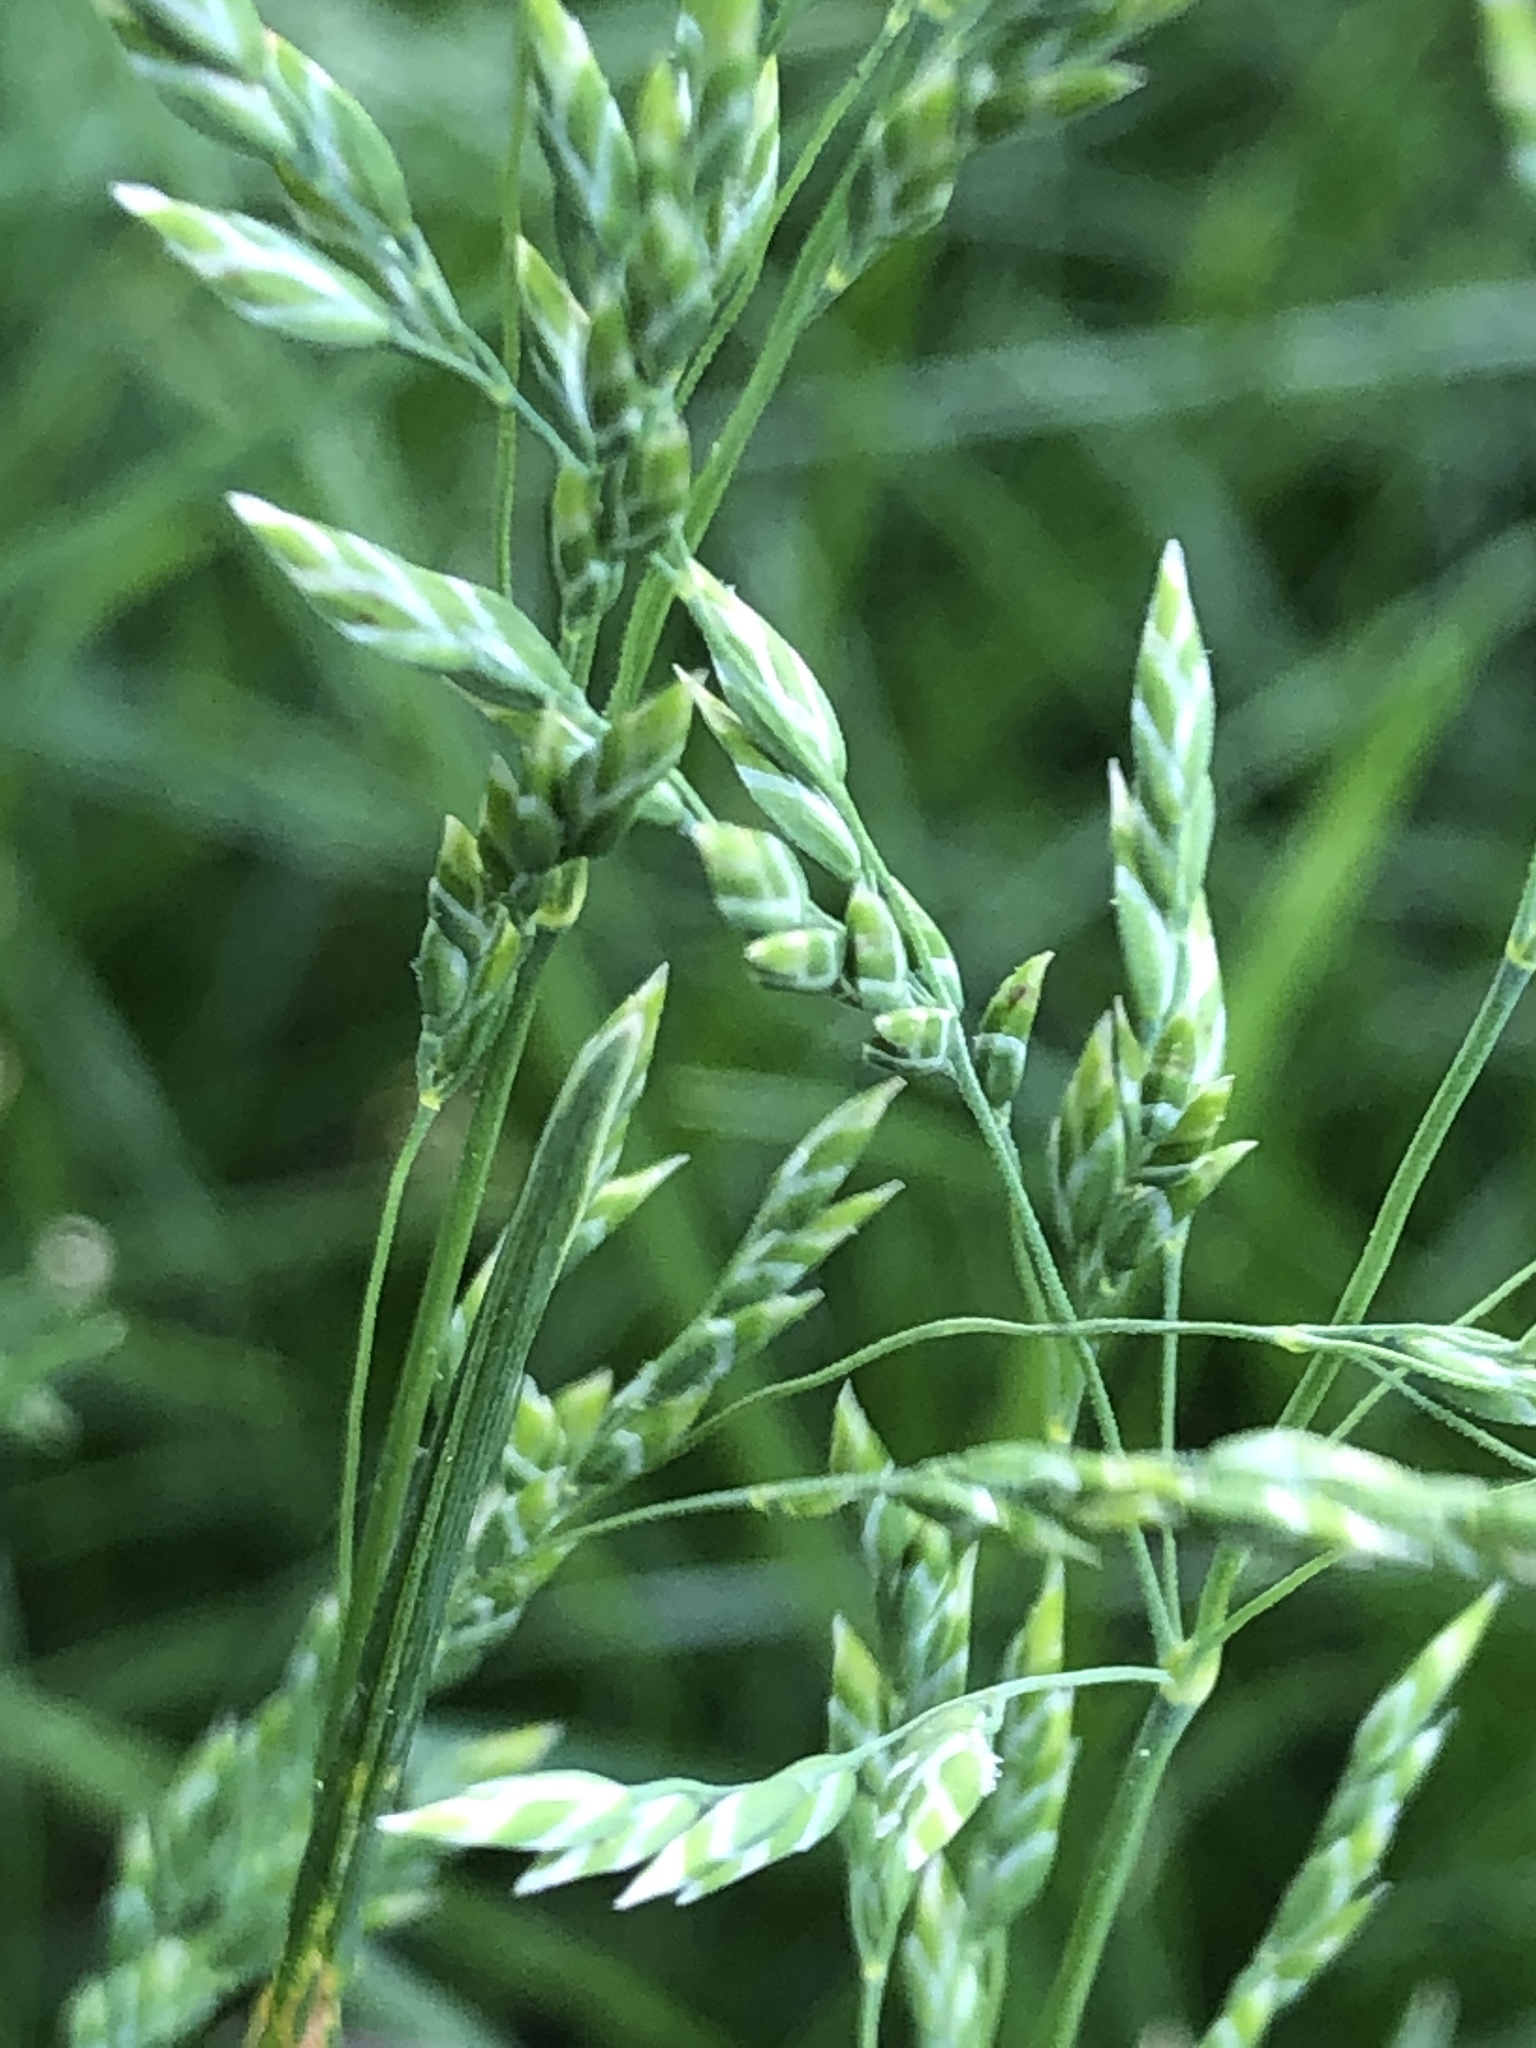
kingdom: Plantae
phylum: Tracheophyta
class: Liliopsida
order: Poales
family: Poaceae
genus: Poa
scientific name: Poa annua
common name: Annual bluegrass
